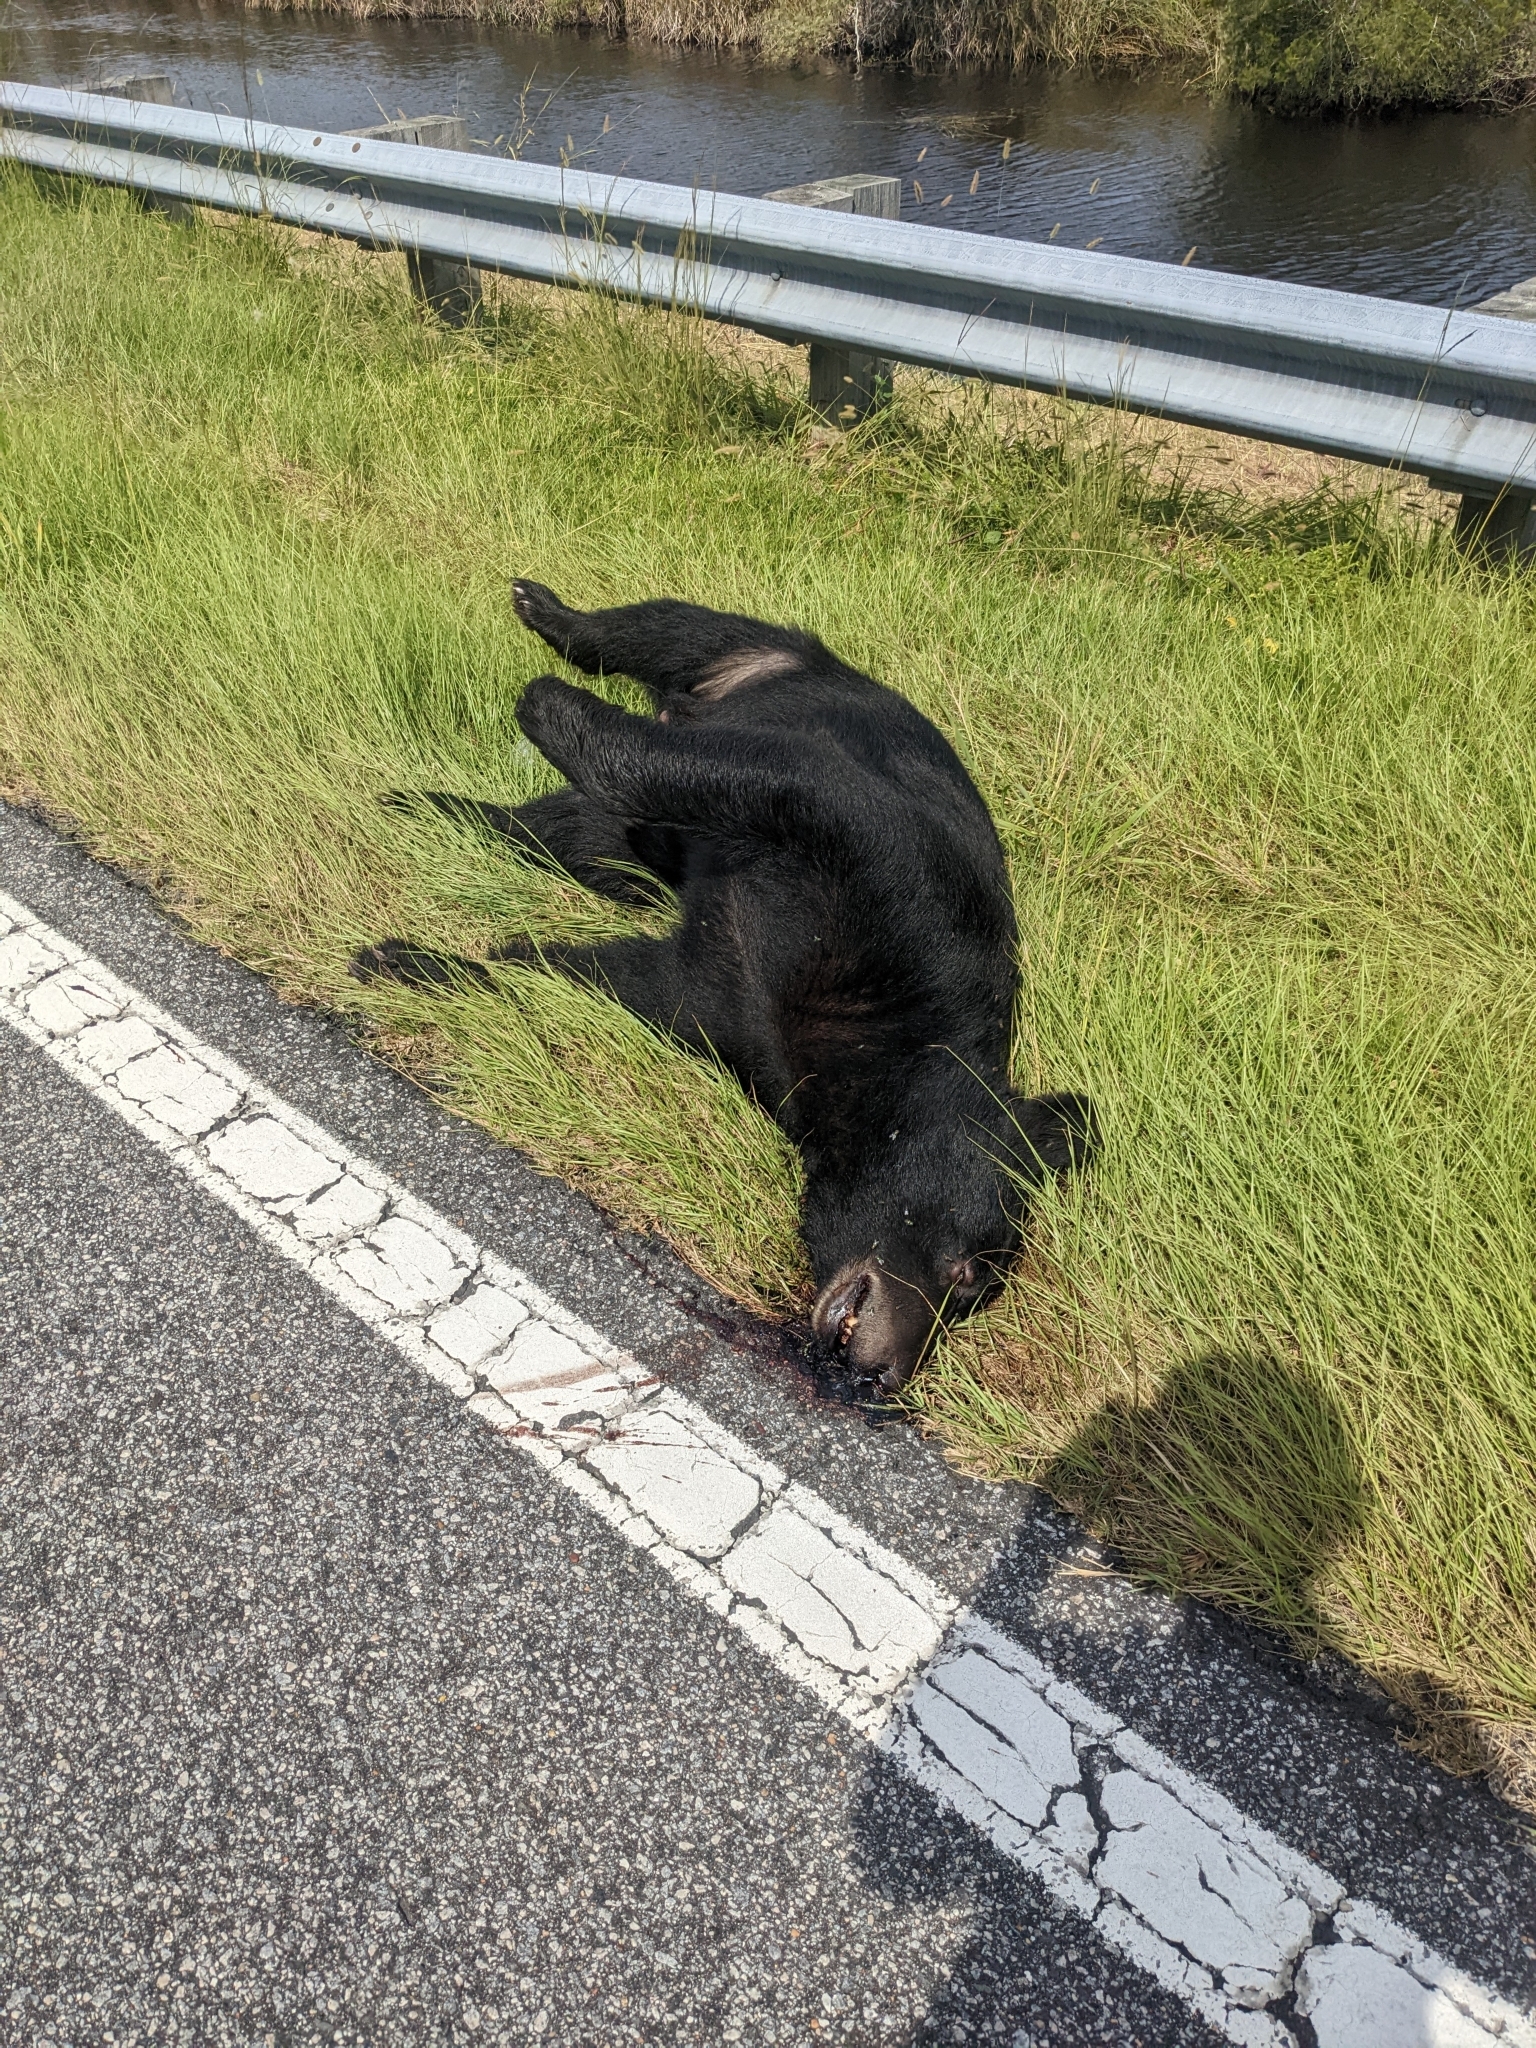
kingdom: Animalia
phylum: Chordata
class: Mammalia
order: Carnivora
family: Ursidae
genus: Ursus
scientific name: Ursus americanus
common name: American black bear
